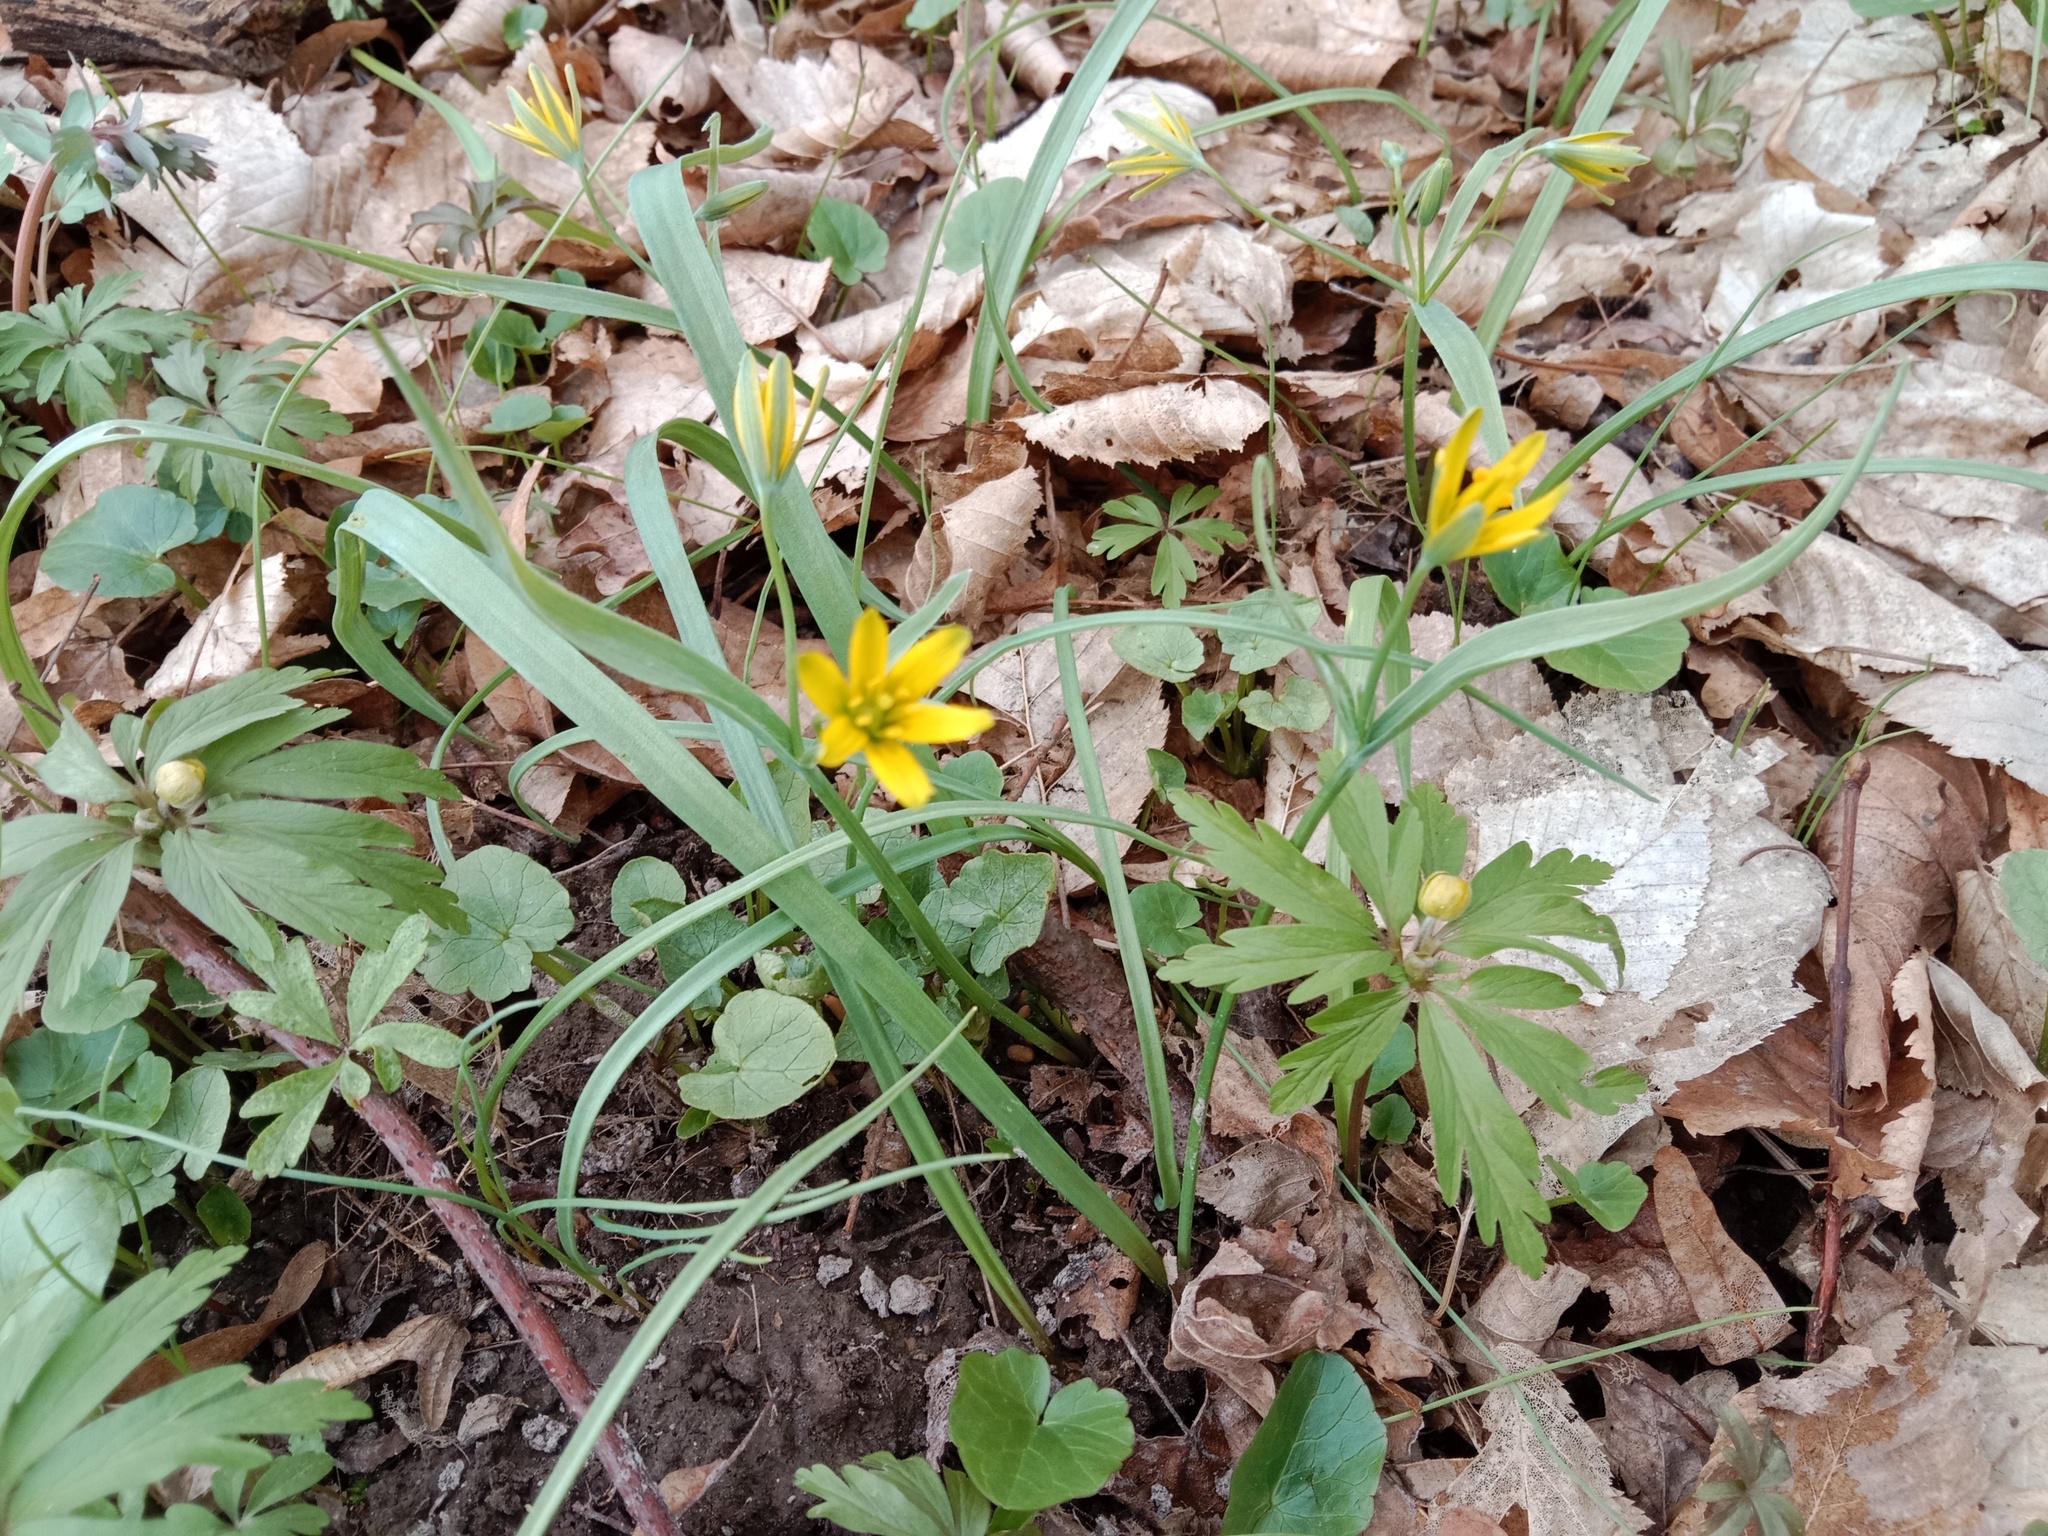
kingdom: Plantae
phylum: Tracheophyta
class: Liliopsida
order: Liliales
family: Liliaceae
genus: Gagea
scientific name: Gagea lutea
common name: Yellow star-of-bethlehem
